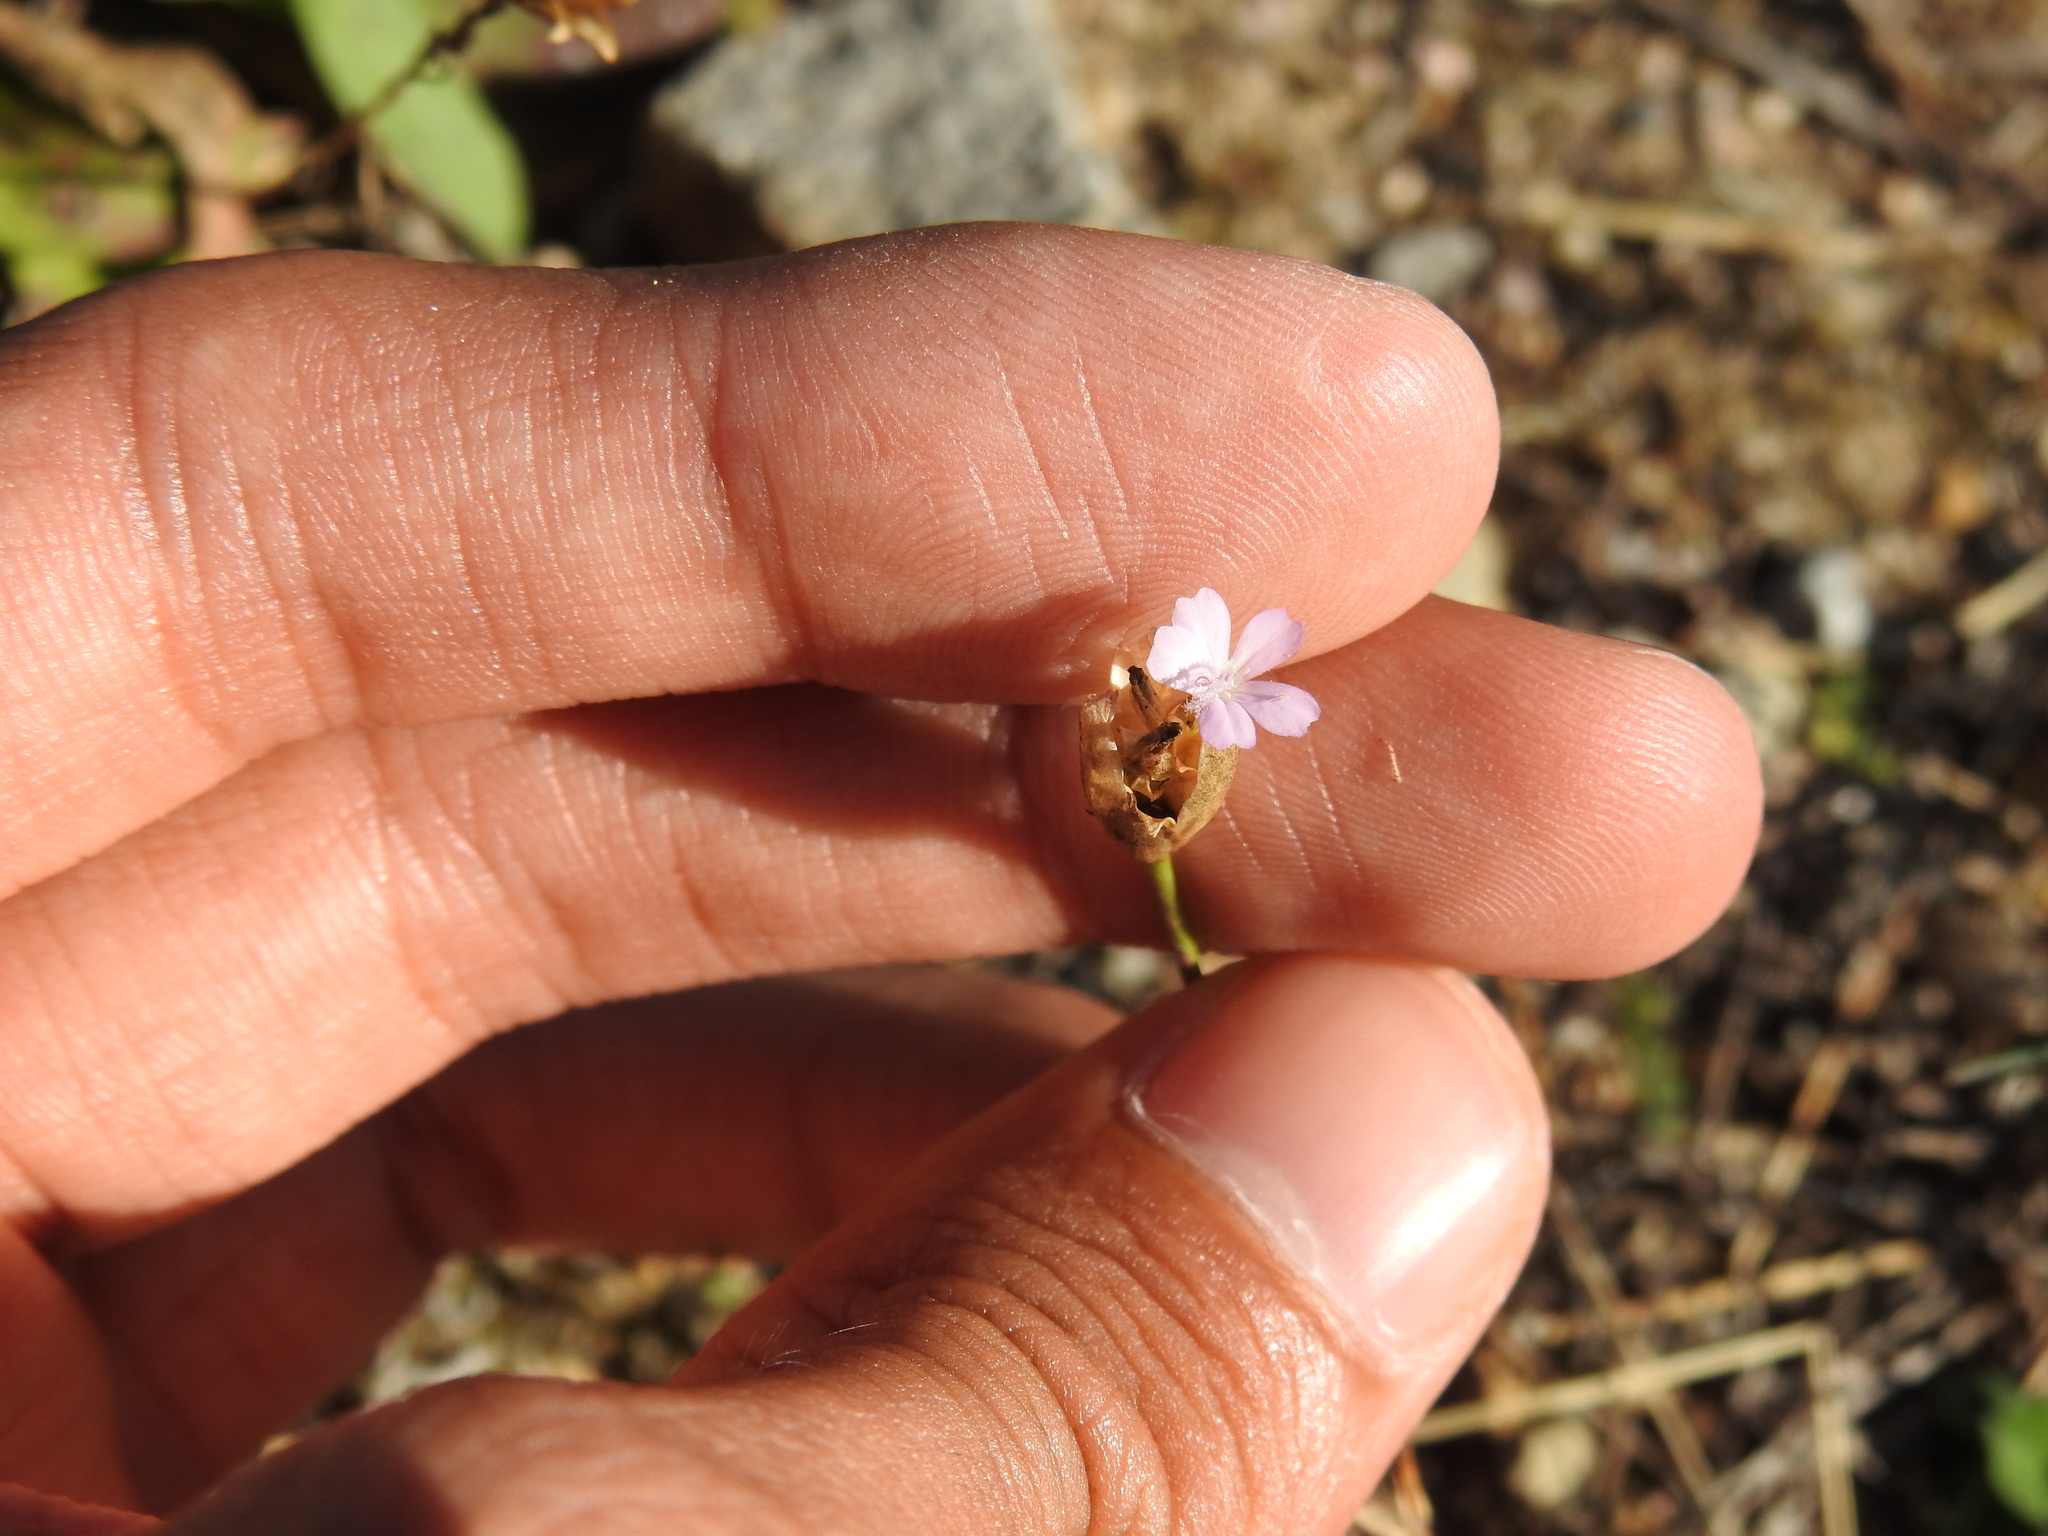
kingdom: Plantae
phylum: Tracheophyta
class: Magnoliopsida
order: Caryophyllales
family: Caryophyllaceae
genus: Petrorhagia
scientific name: Petrorhagia prolifera
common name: Proliferous pink
